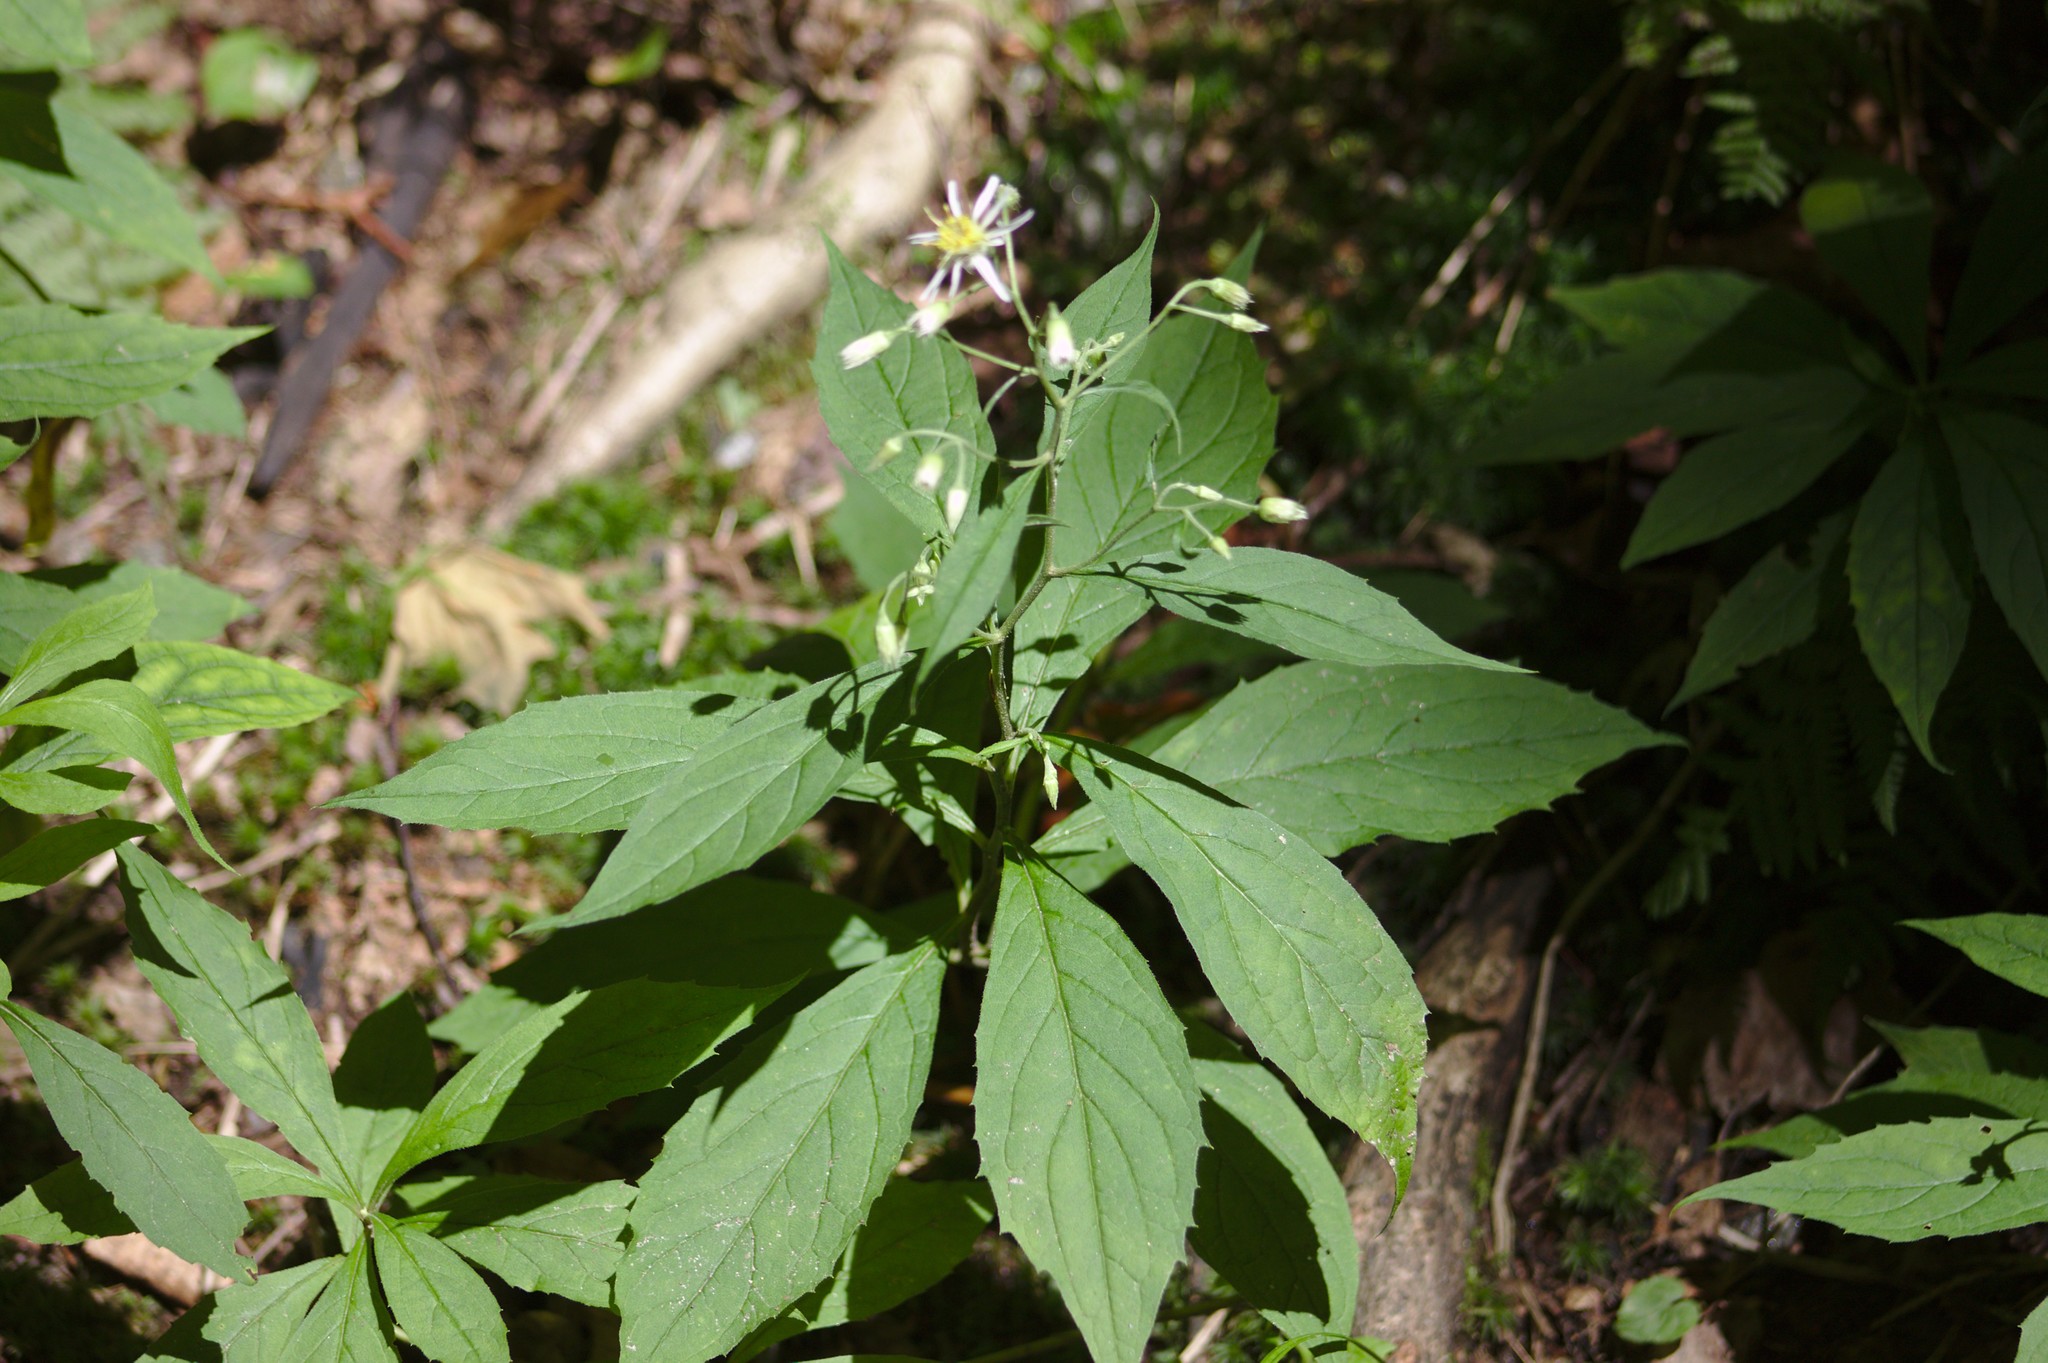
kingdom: Plantae
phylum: Tracheophyta
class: Magnoliopsida
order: Asterales
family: Asteraceae
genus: Oclemena
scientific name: Oclemena acuminata
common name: Mountain aster
